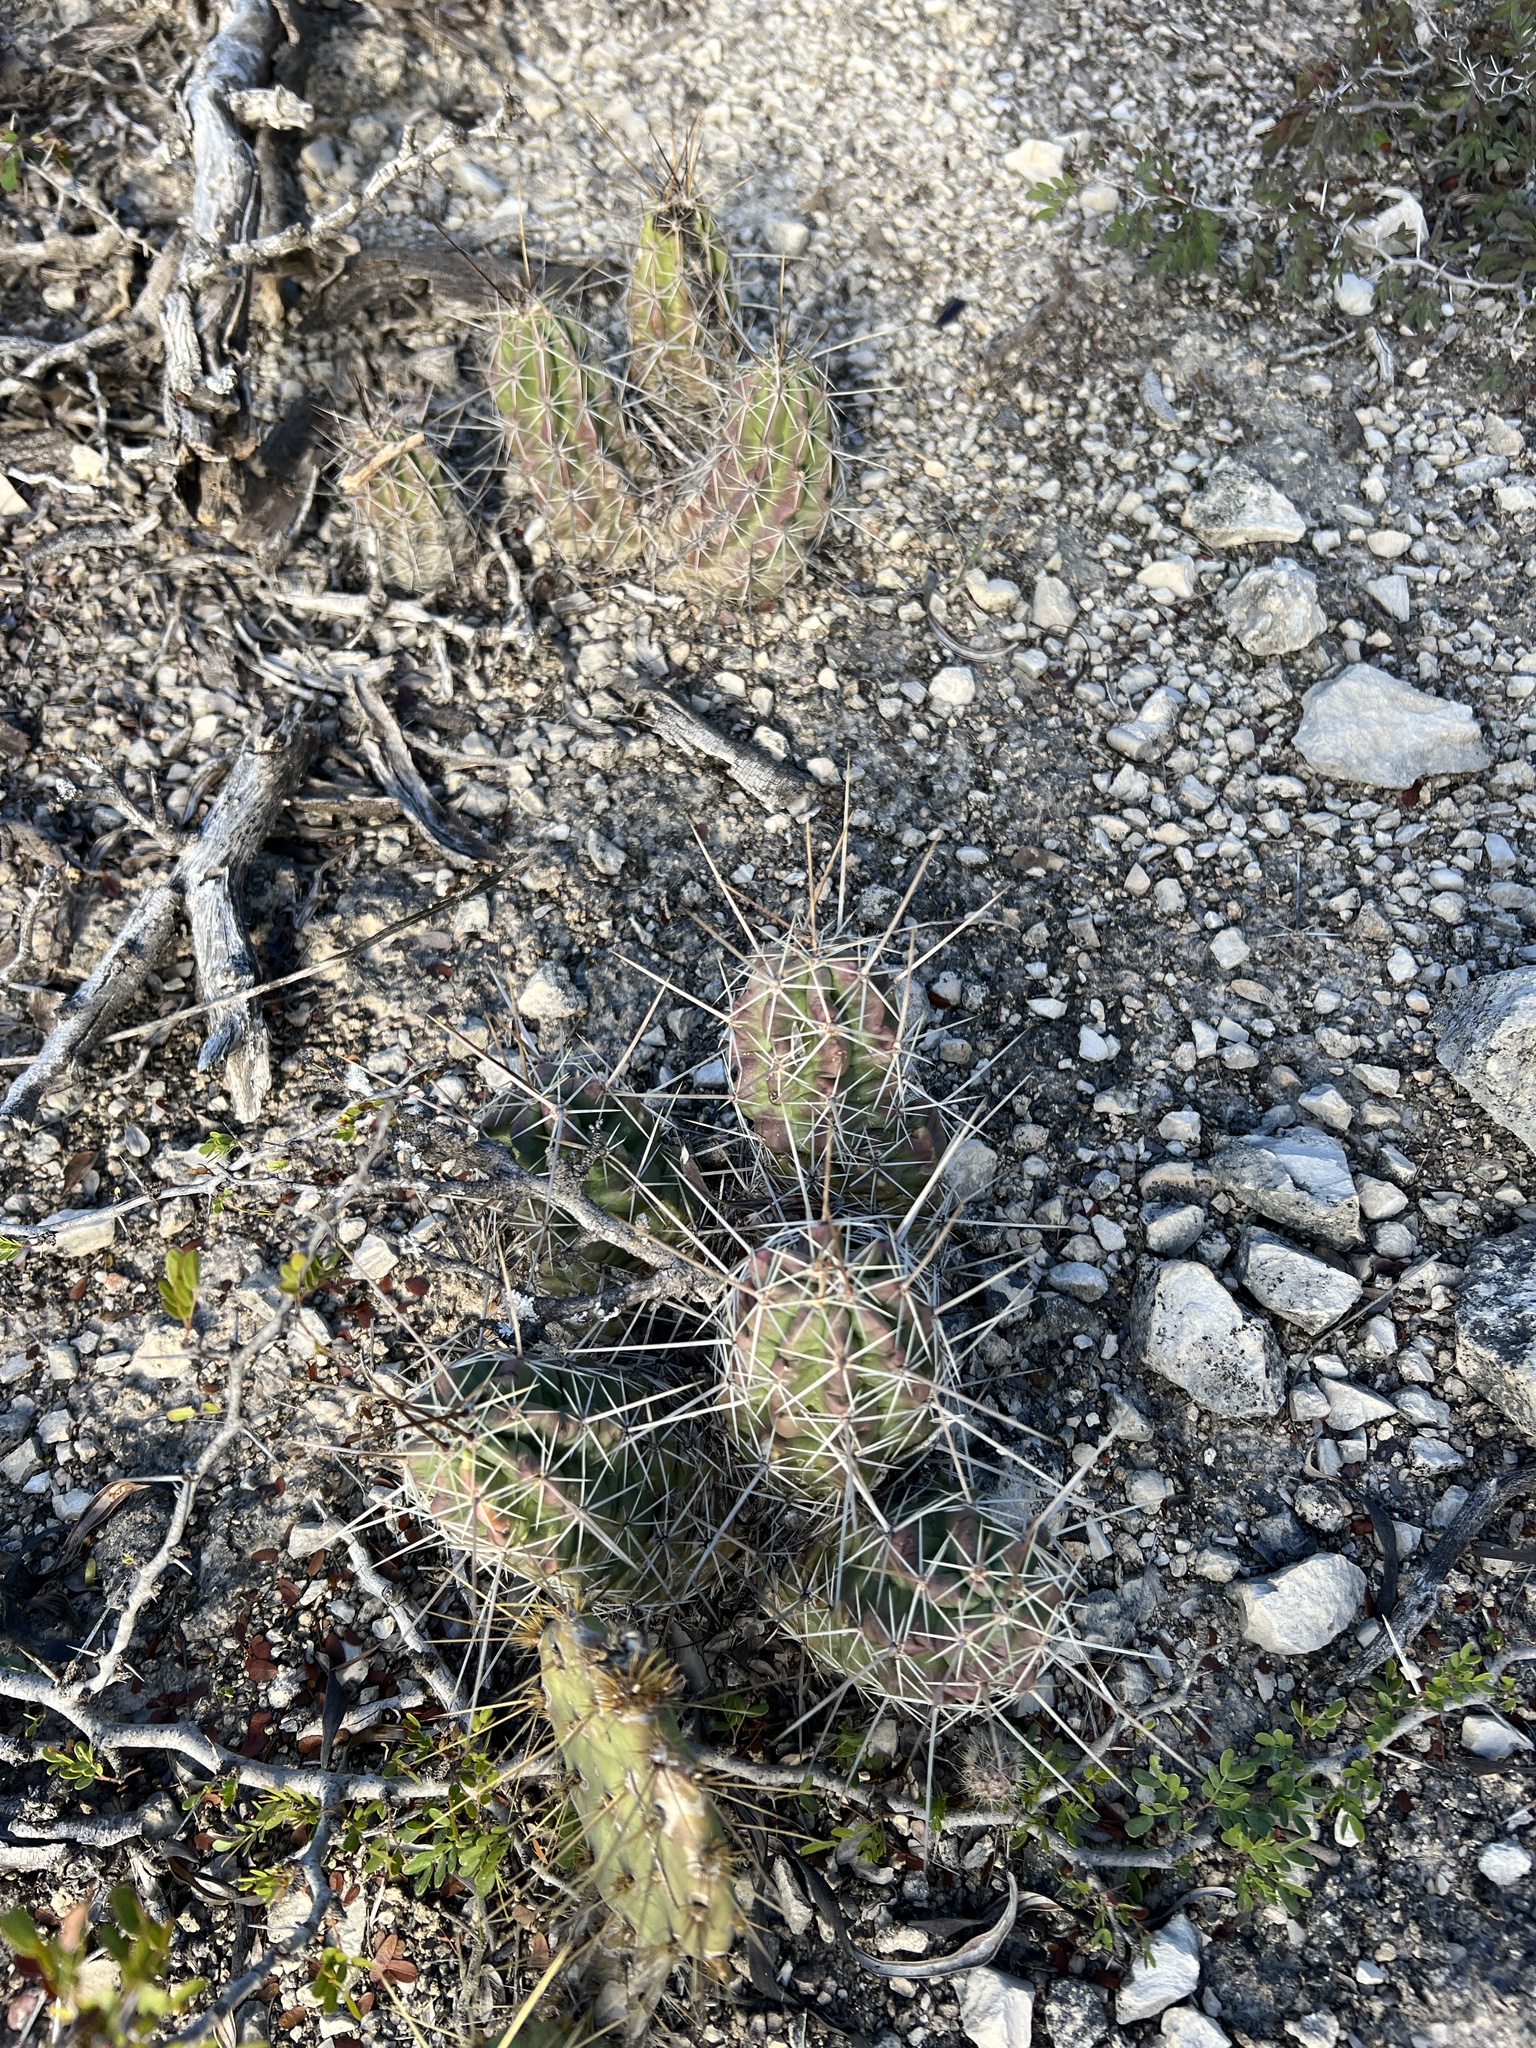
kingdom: Plantae
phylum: Tracheophyta
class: Magnoliopsida
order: Caryophyllales
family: Cactaceae
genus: Echinocereus
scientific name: Echinocereus enneacanthus
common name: Pitaya
